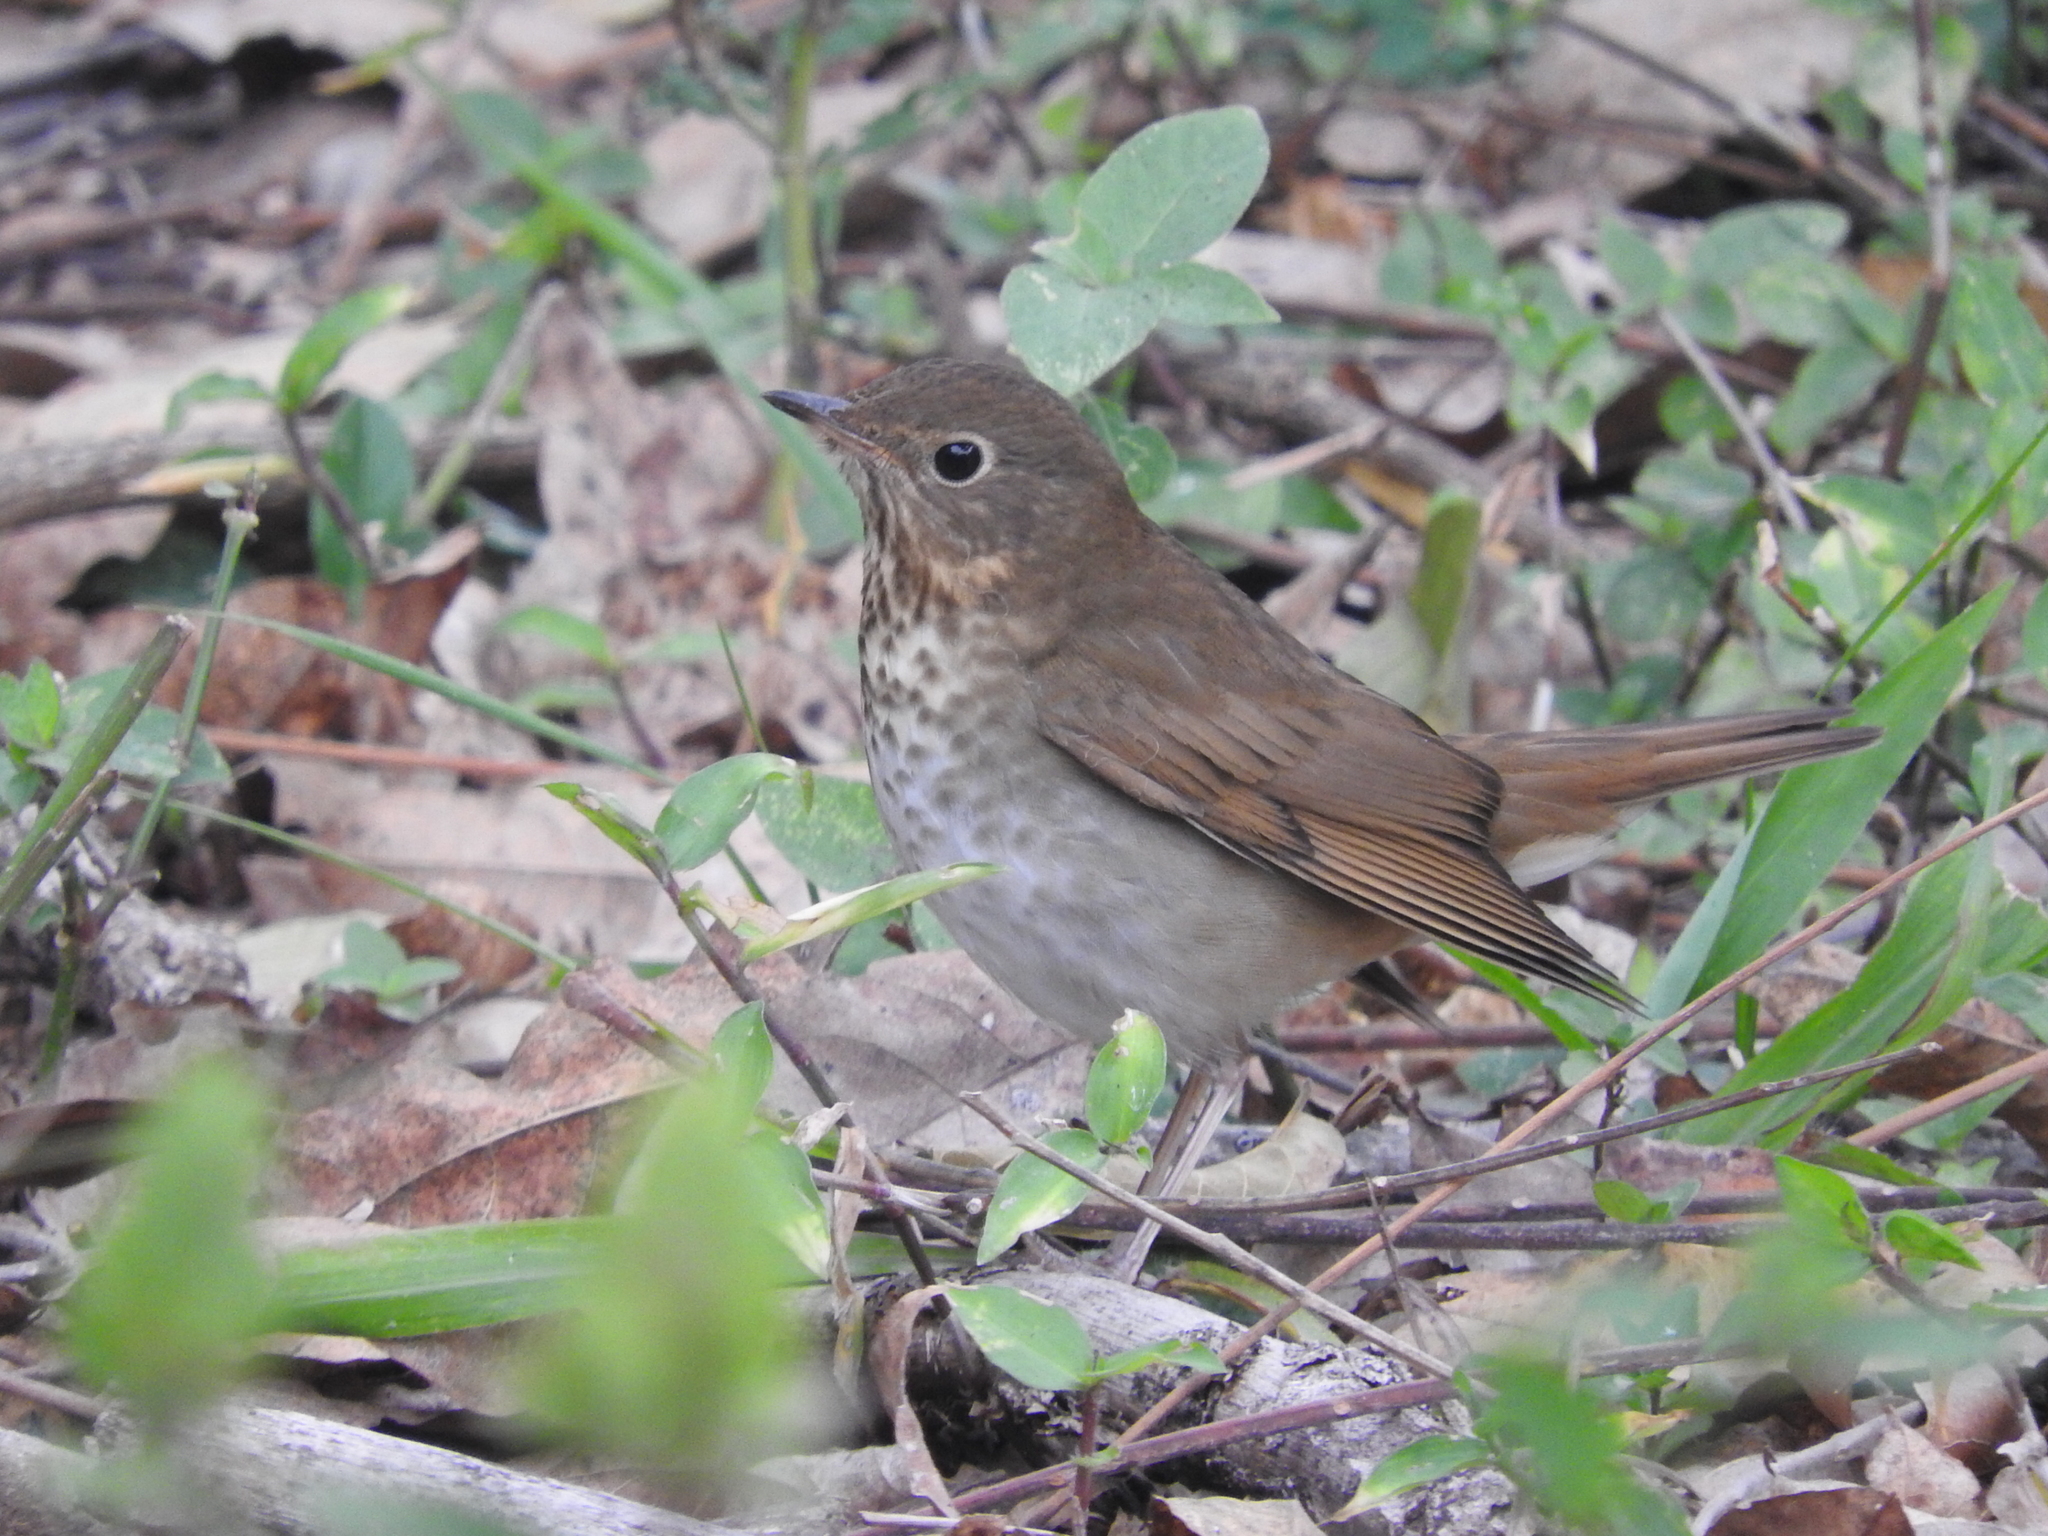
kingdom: Animalia
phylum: Chordata
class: Aves
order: Passeriformes
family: Turdidae
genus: Catharus
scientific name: Catharus guttatus
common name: Hermit thrush
